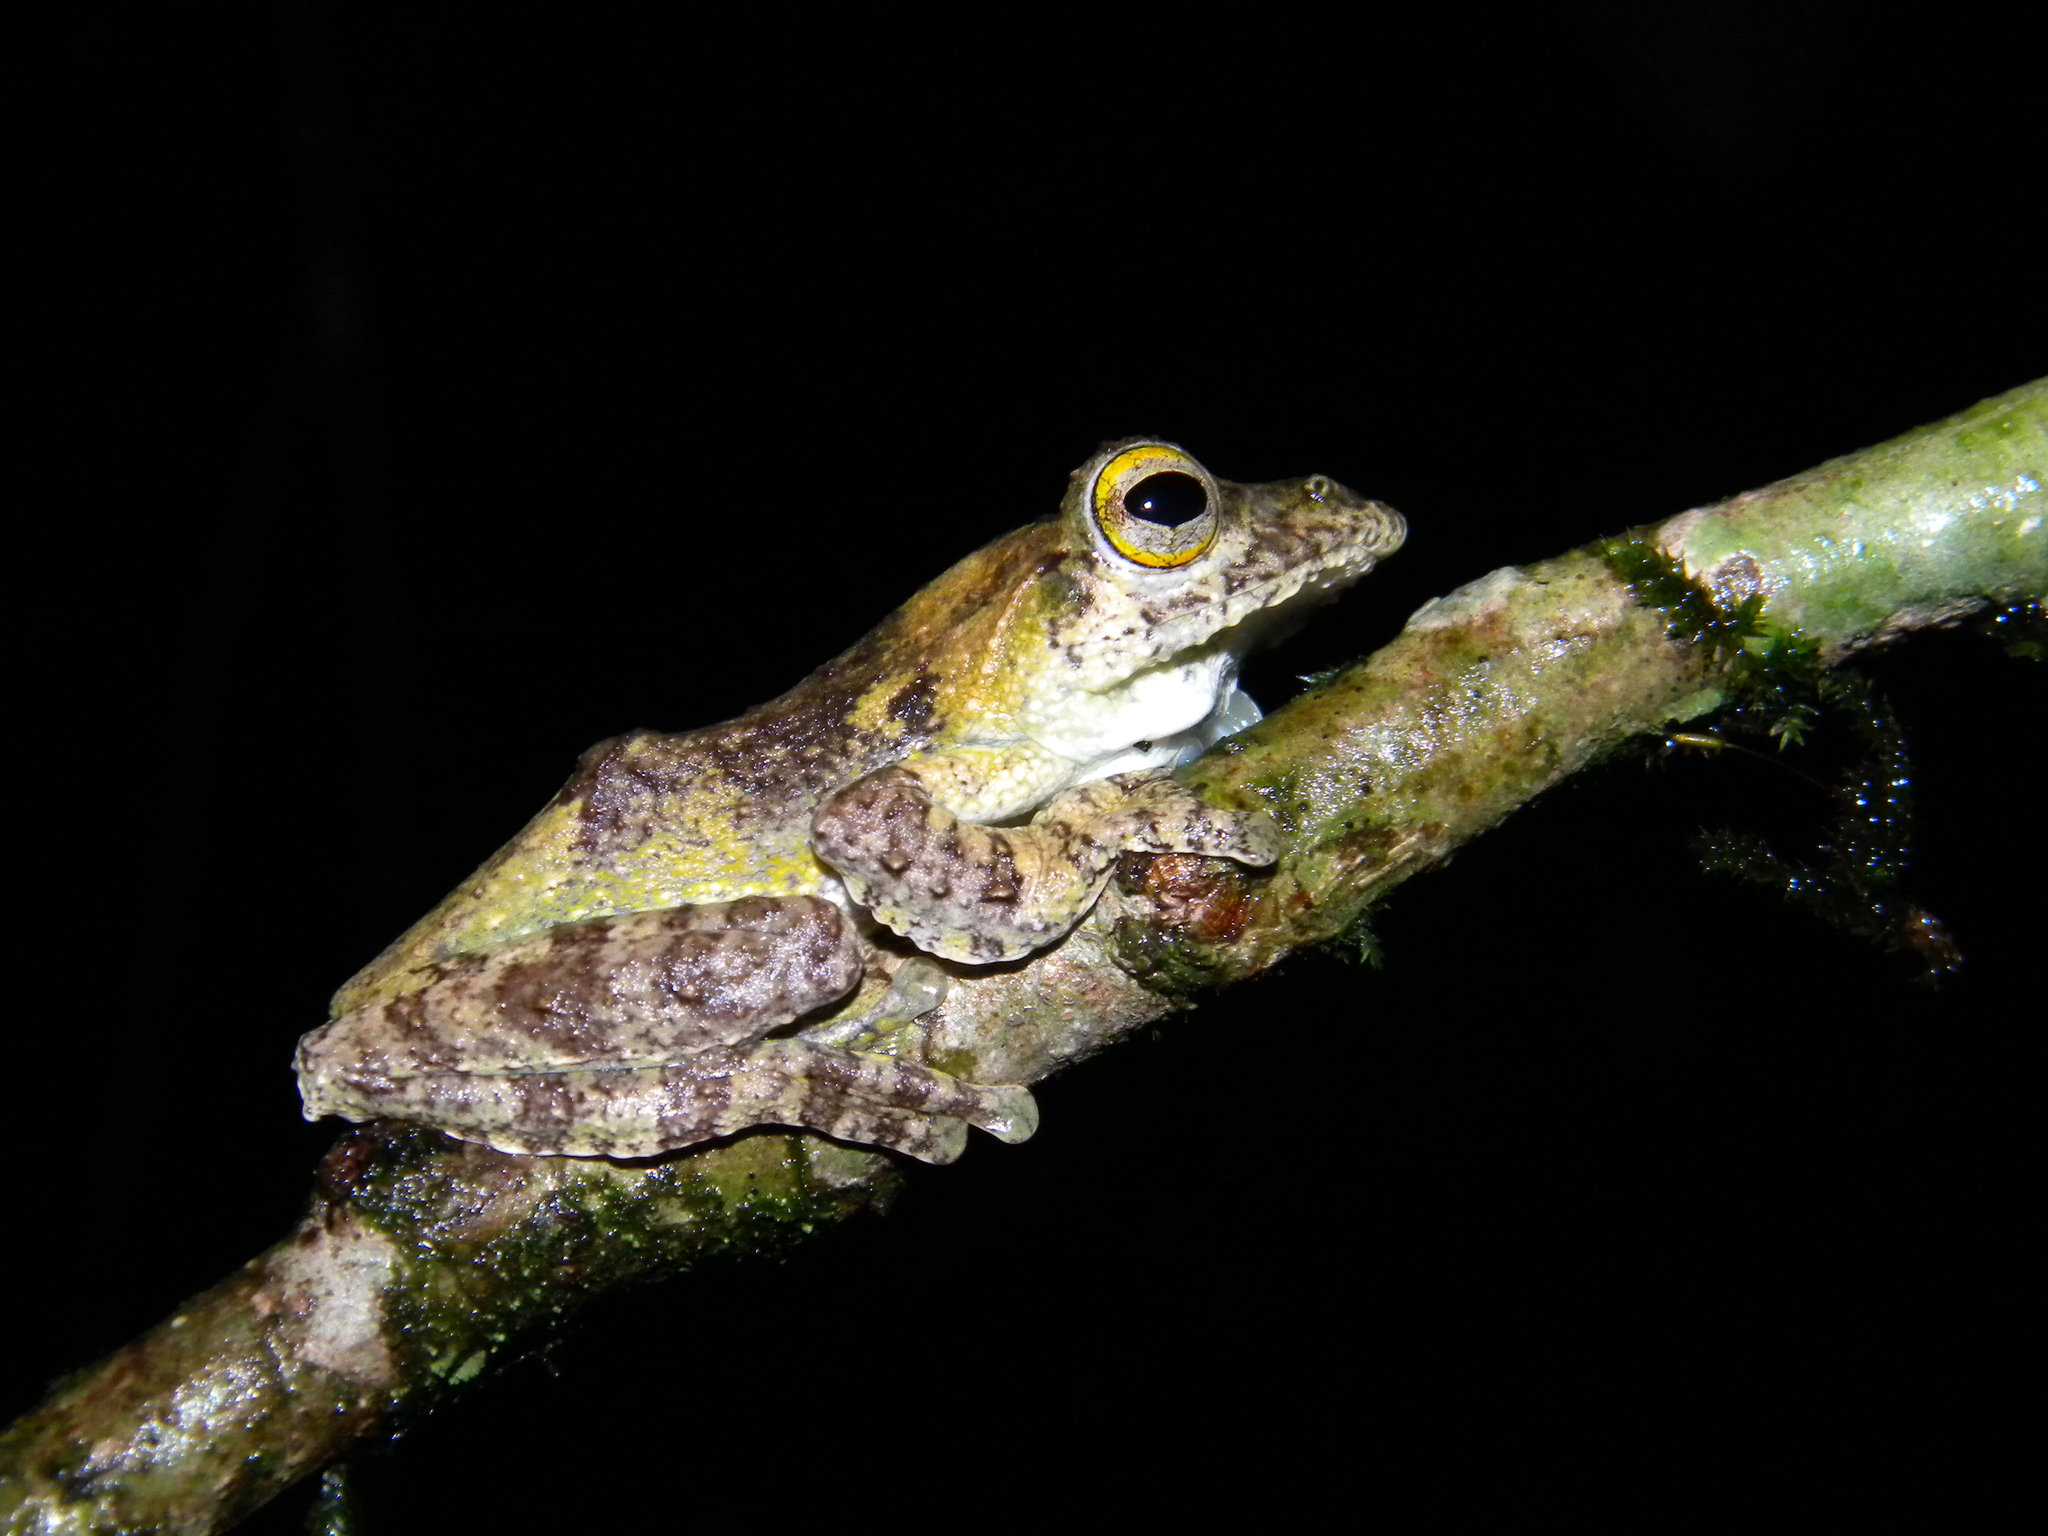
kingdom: Animalia
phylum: Chordata
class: Amphibia
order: Anura
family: Rhacophoridae
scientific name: Rhacophoridae
